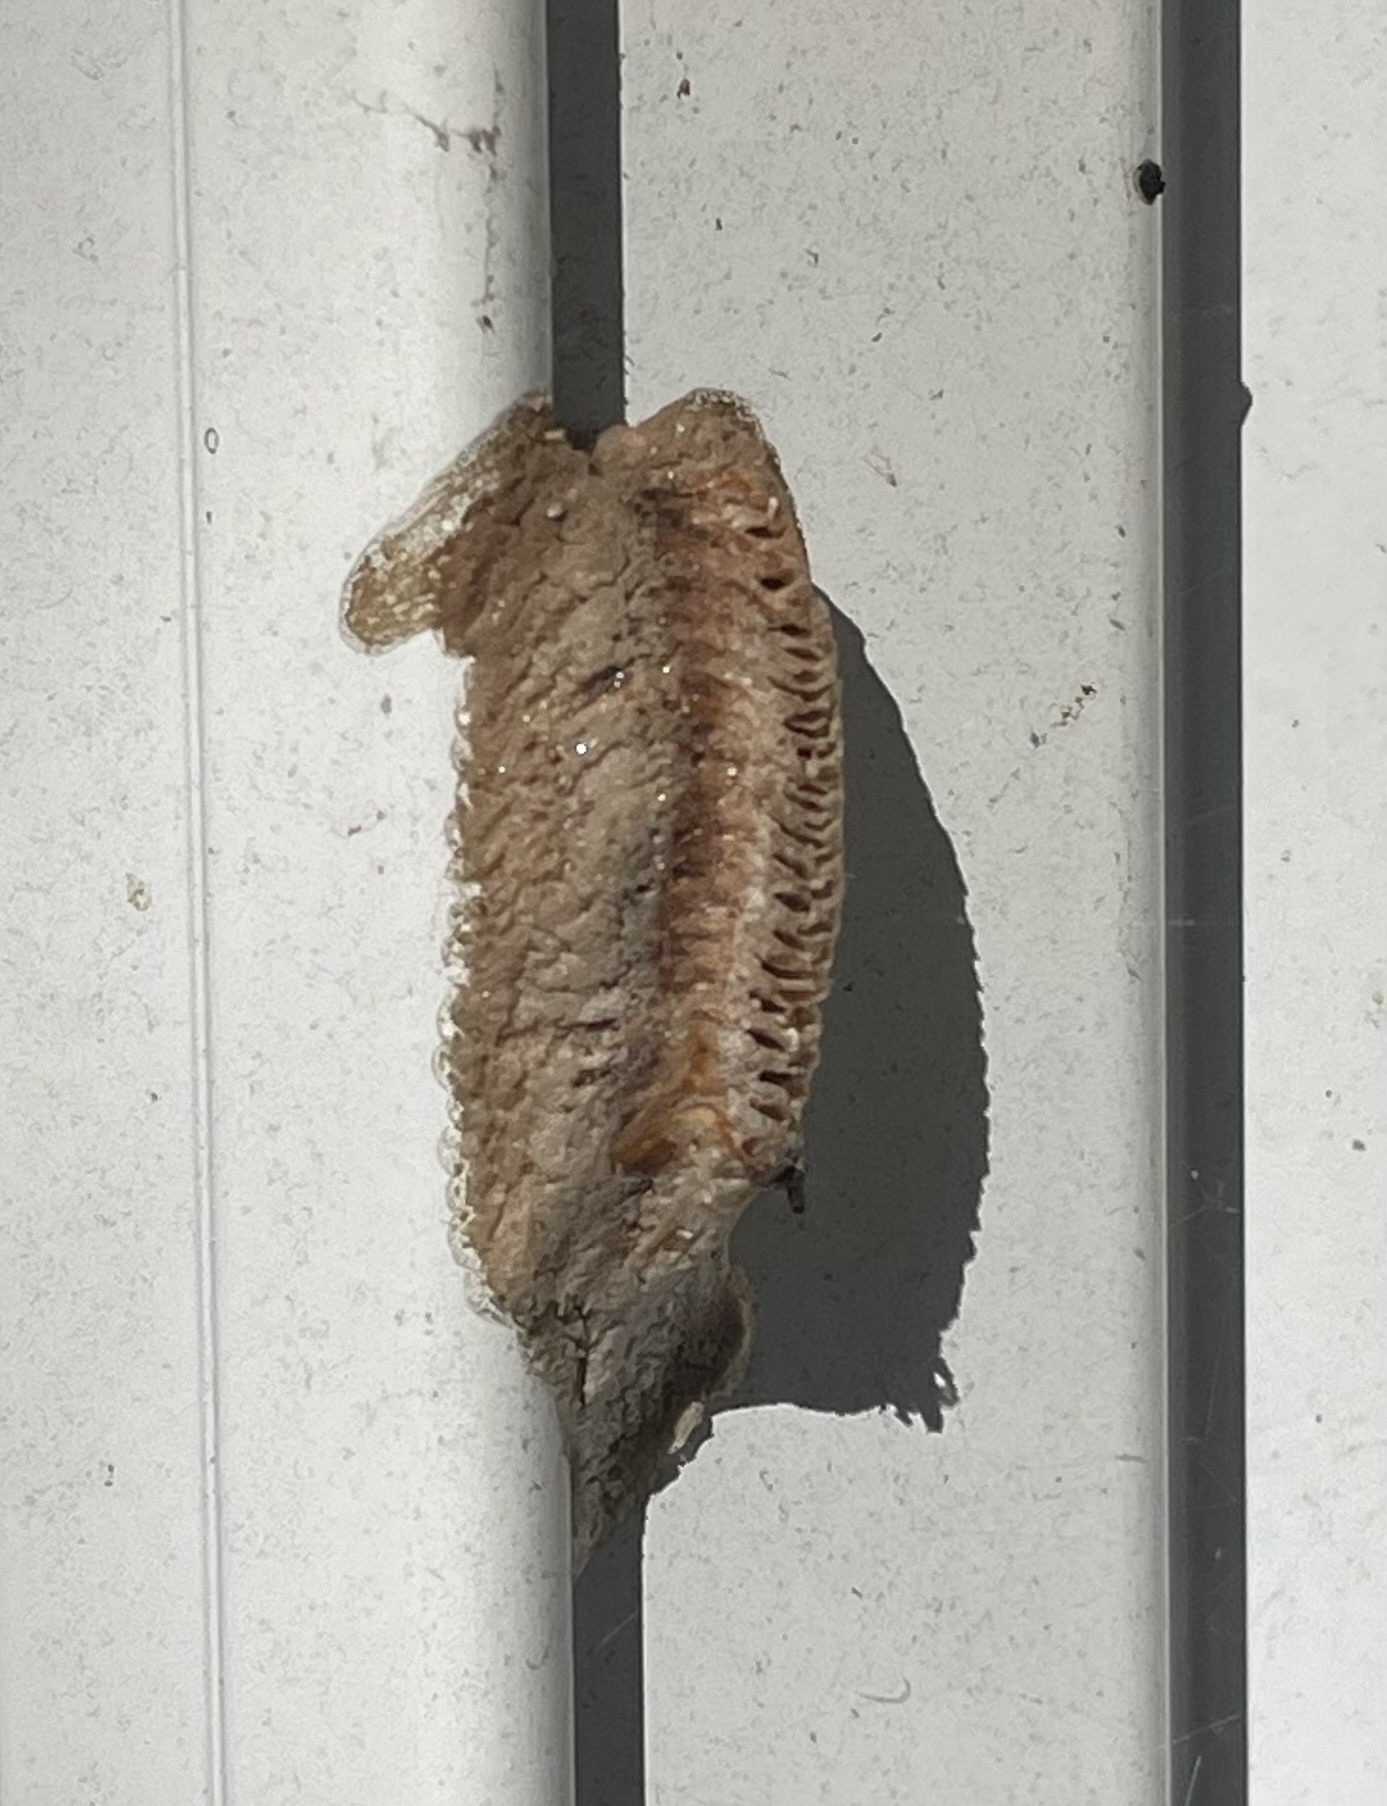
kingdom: Animalia
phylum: Arthropoda
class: Insecta
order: Mantodea
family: Mantidae
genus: Tenodera
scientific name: Tenodera angustipennis
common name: Asian mantis
